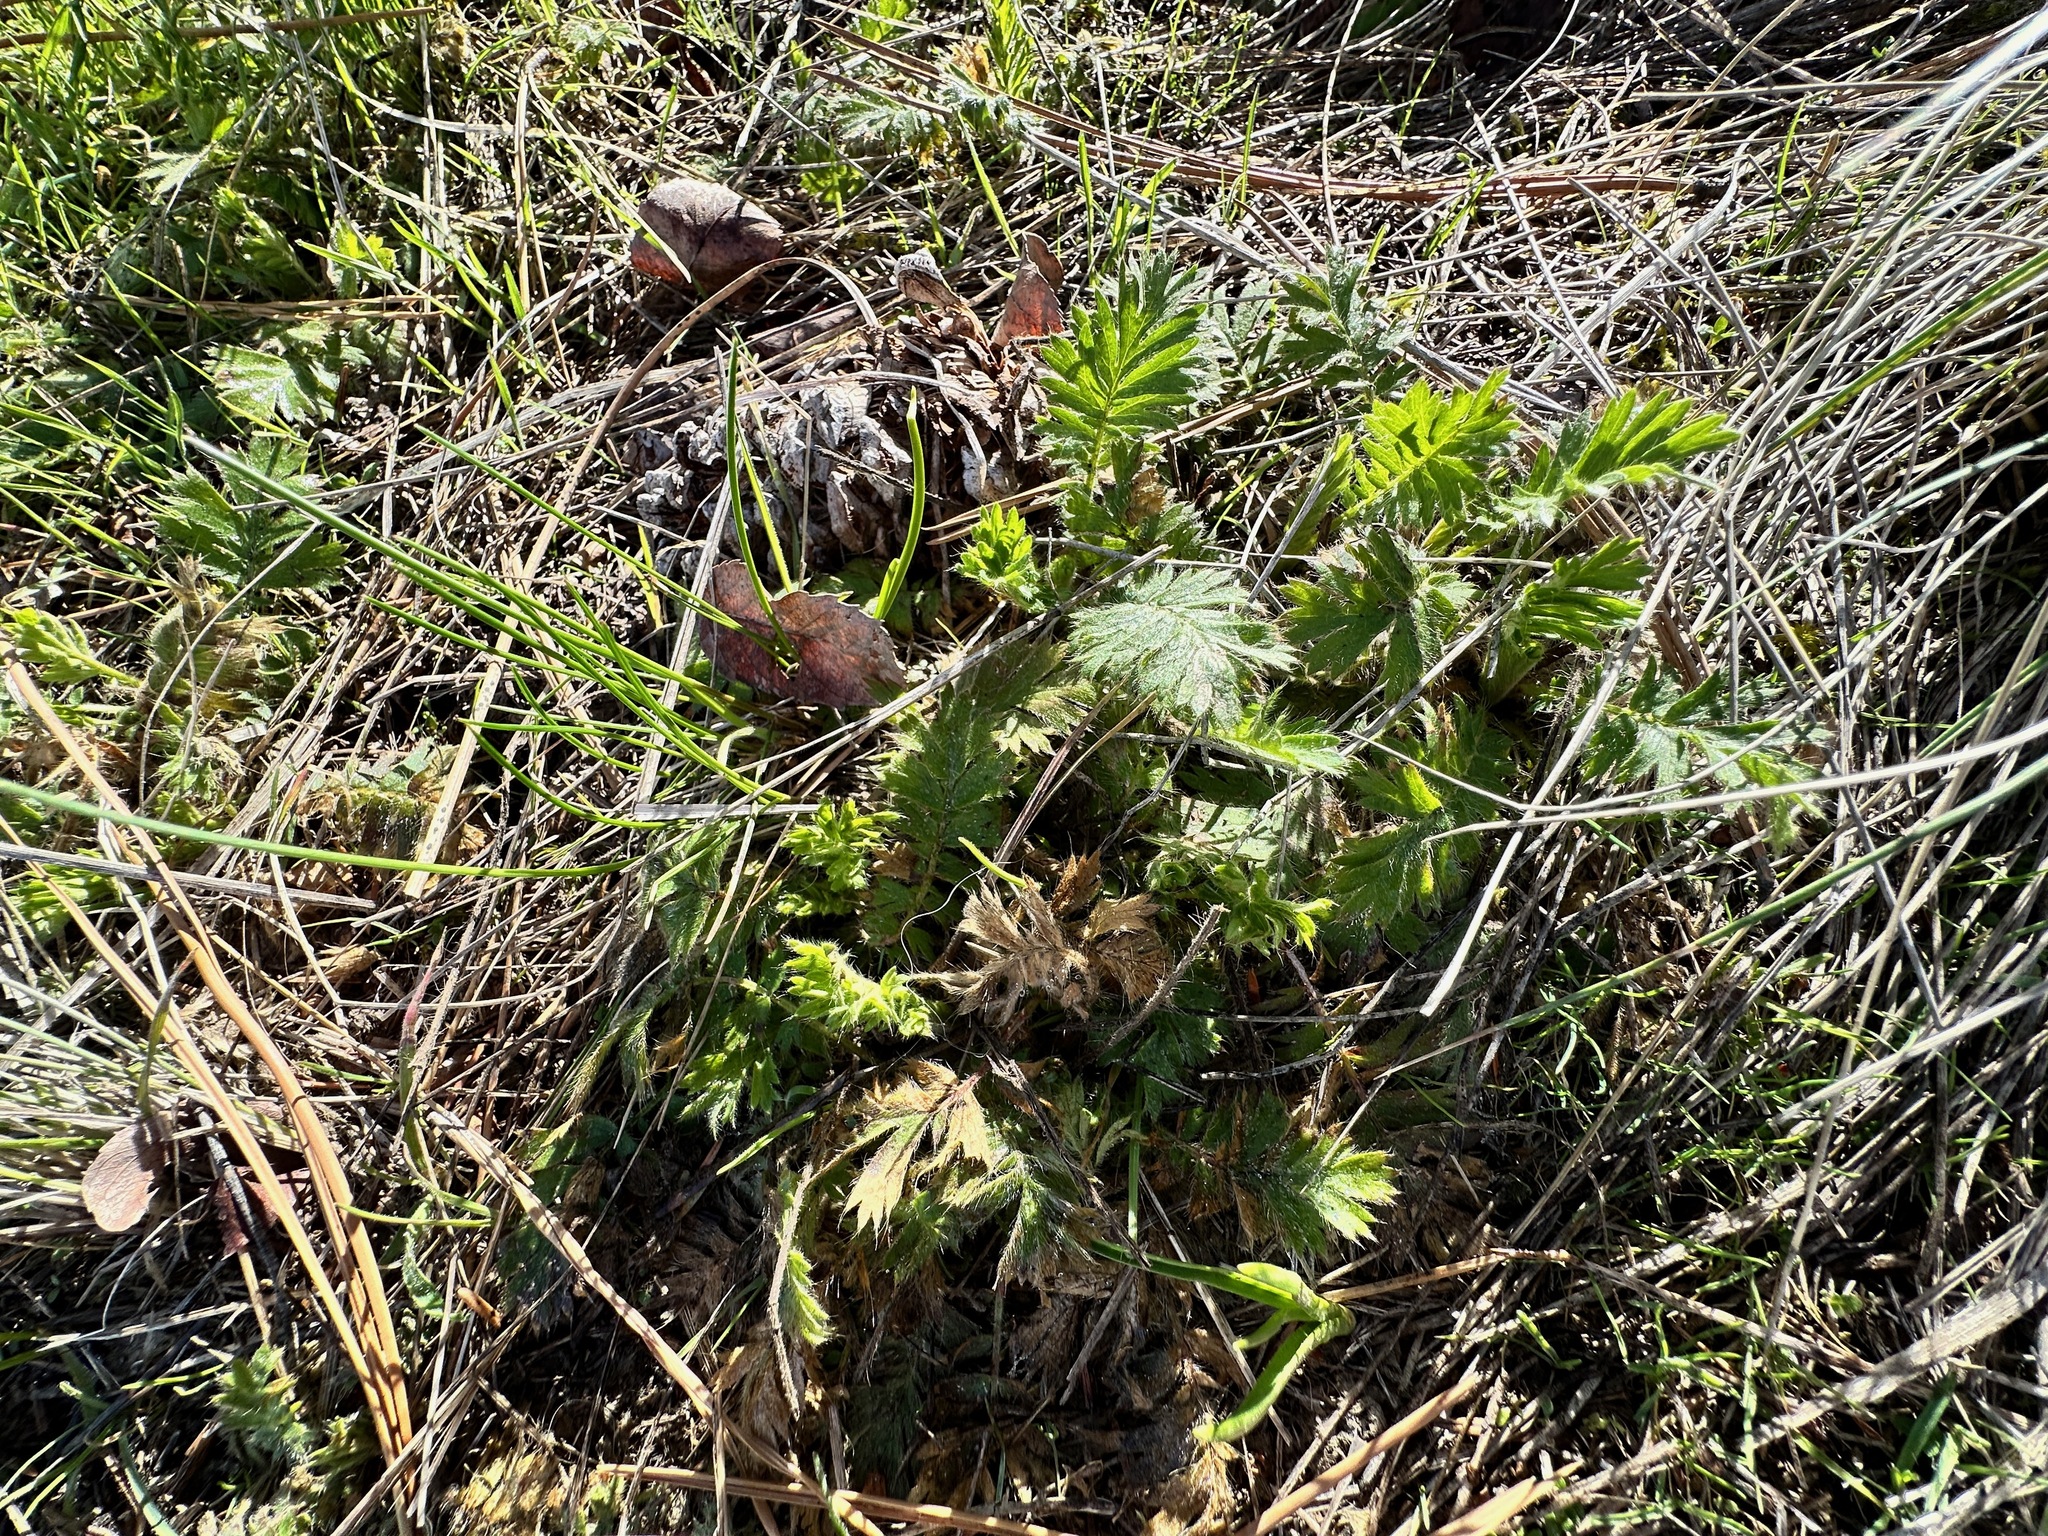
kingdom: Plantae
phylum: Tracheophyta
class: Magnoliopsida
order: Rosales
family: Rosaceae
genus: Geum
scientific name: Geum triflorum
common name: Old man's whiskers
